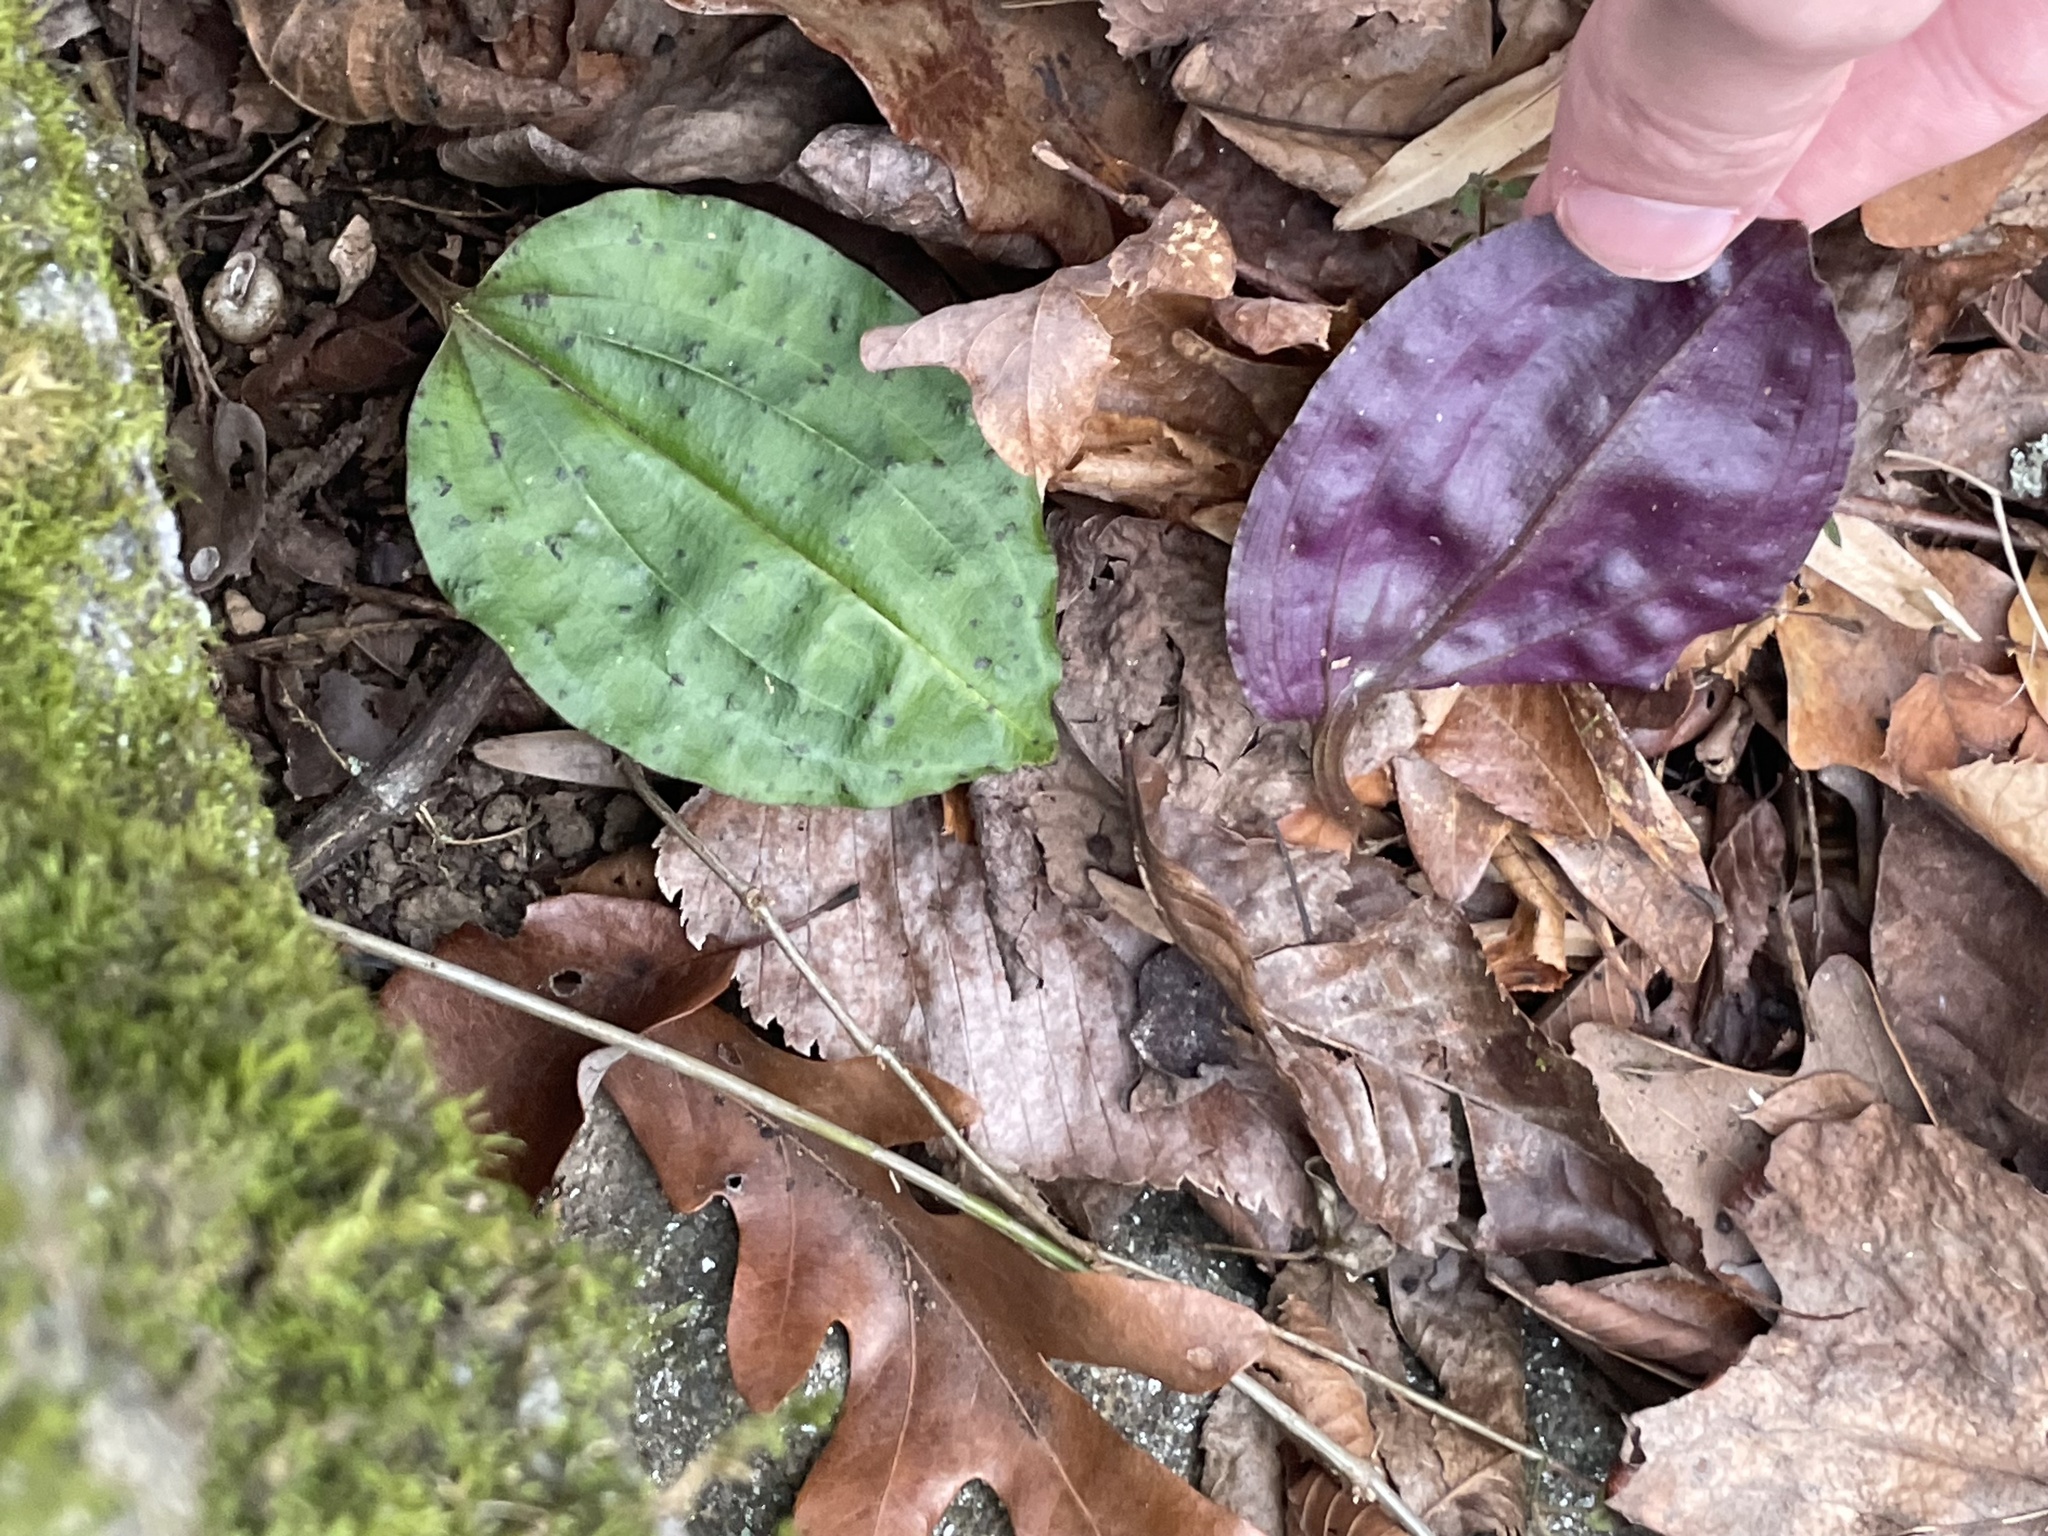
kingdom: Plantae
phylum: Tracheophyta
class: Liliopsida
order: Asparagales
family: Orchidaceae
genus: Tipularia
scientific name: Tipularia discolor
